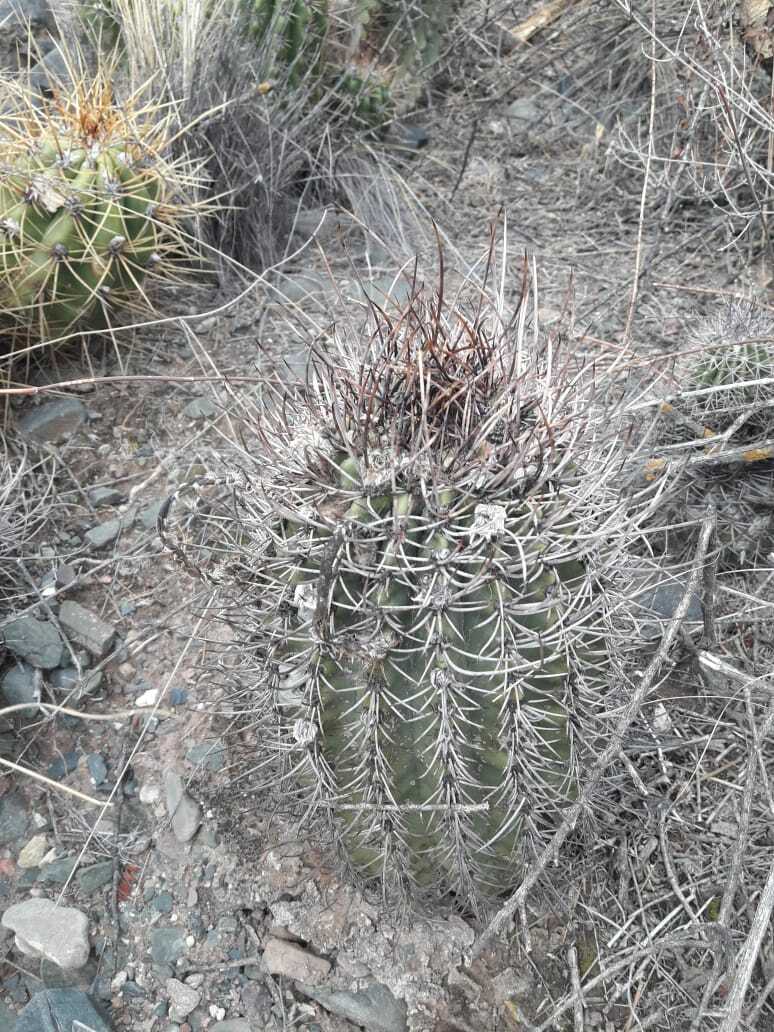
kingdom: Plantae
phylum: Tracheophyta
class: Magnoliopsida
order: Caryophyllales
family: Cactaceae
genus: Acanthocalycium
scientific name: Acanthocalycium leucanthum
